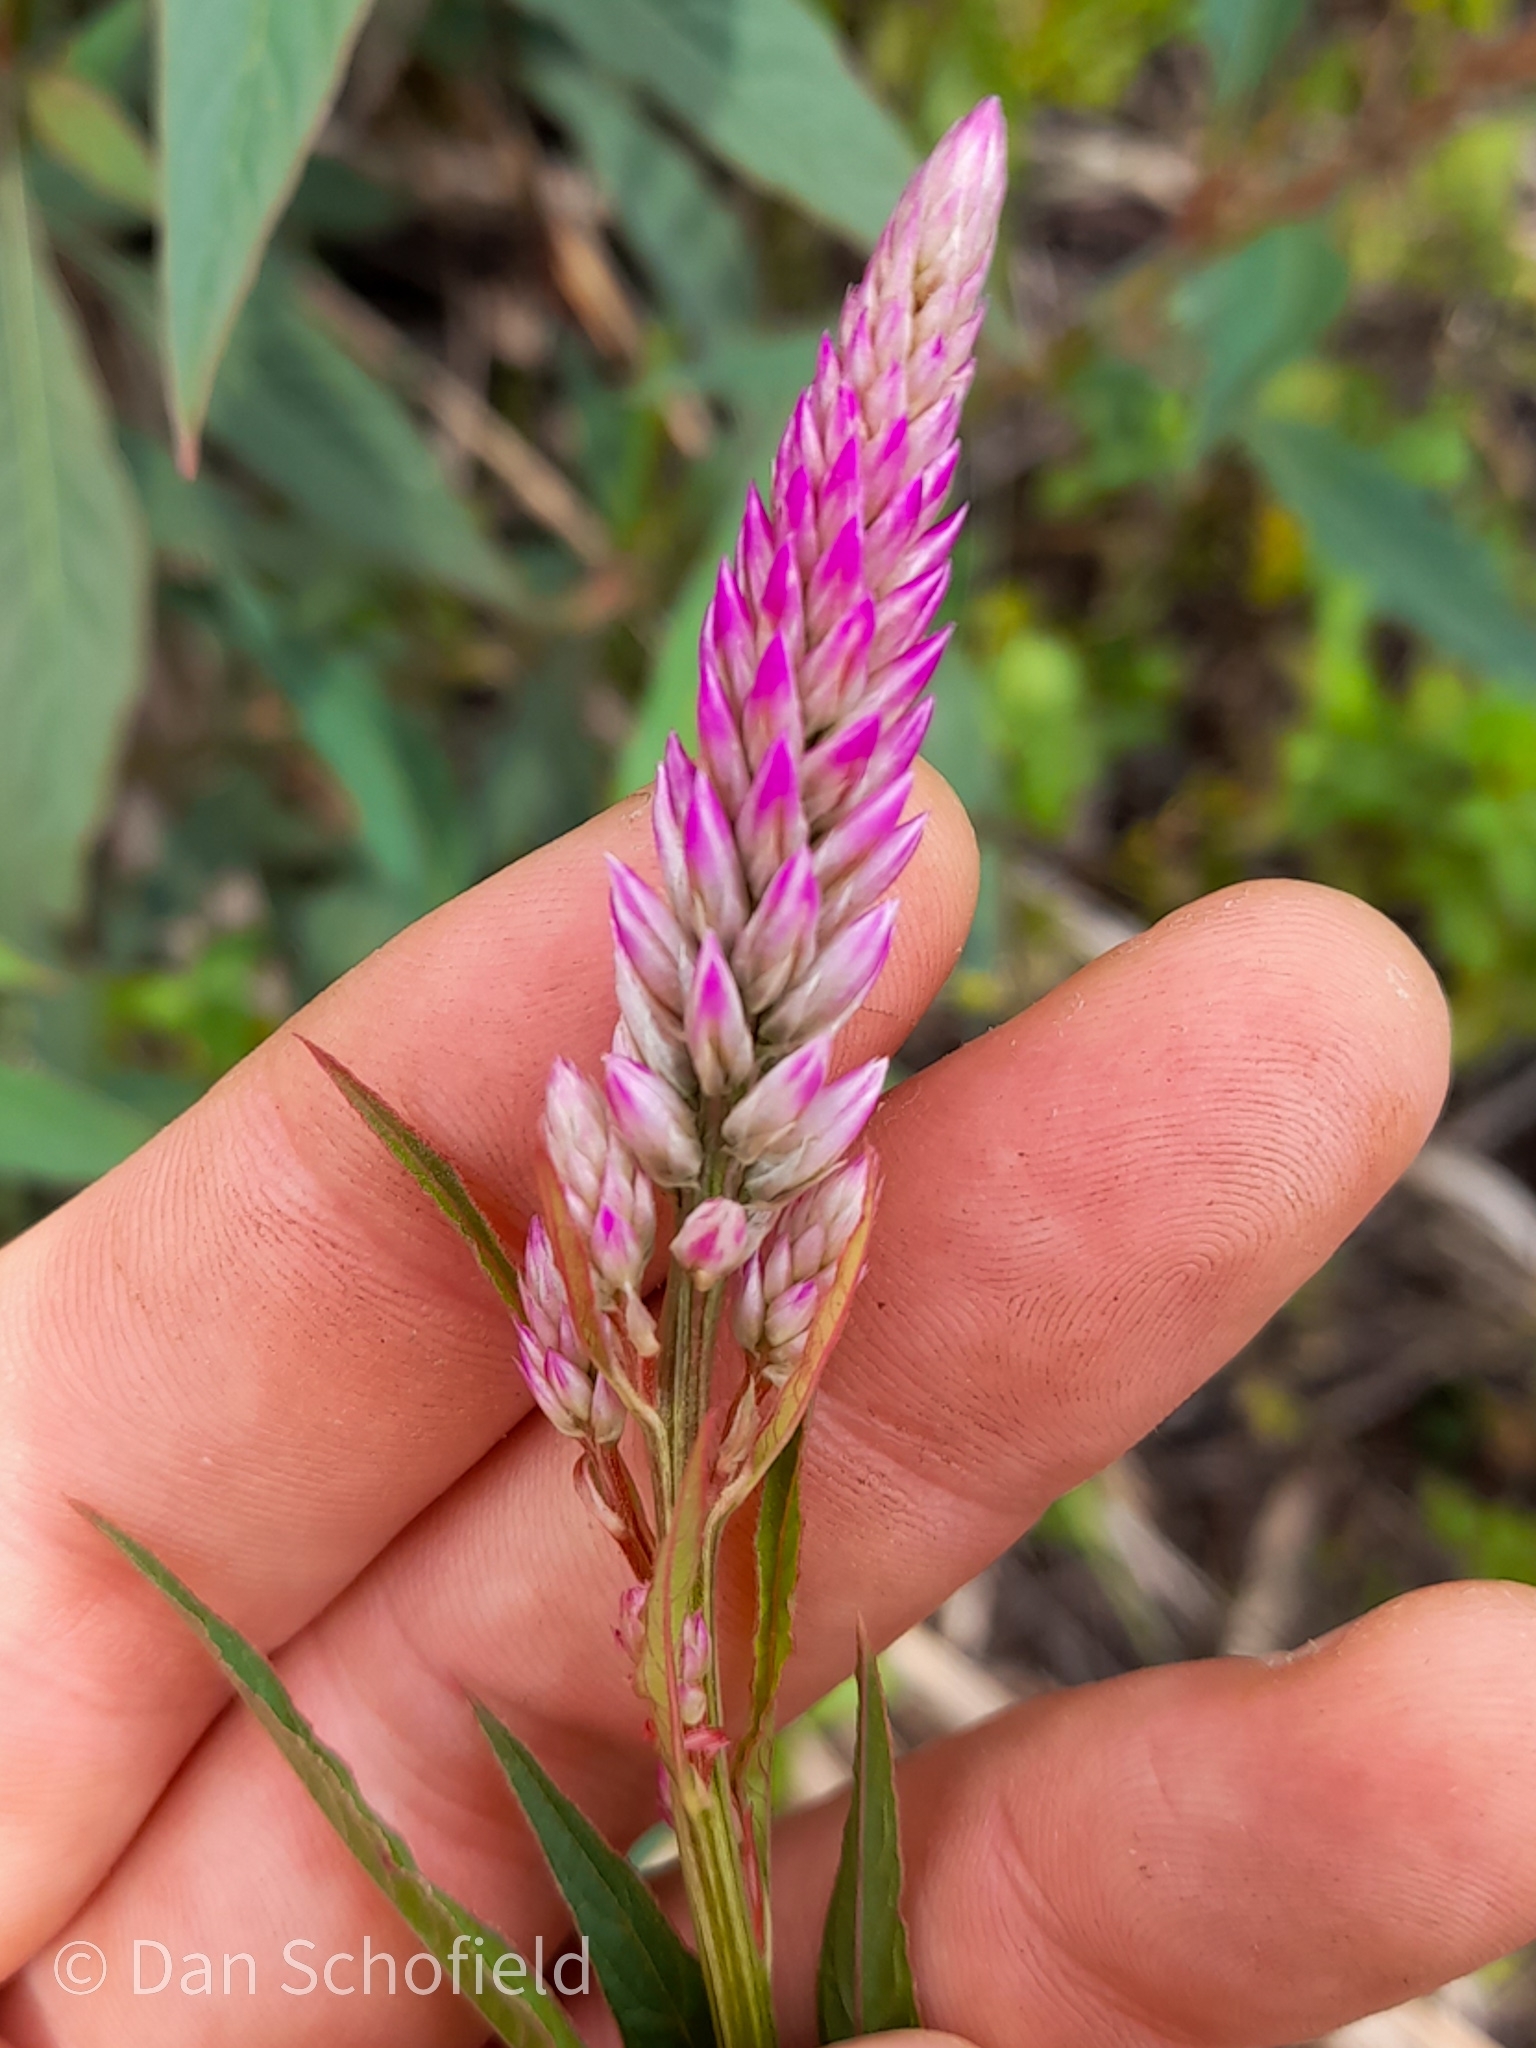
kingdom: Plantae
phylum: Tracheophyta
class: Magnoliopsida
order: Caryophyllales
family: Amaranthaceae
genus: Celosia
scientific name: Celosia argentea
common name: Feather cockscomb
